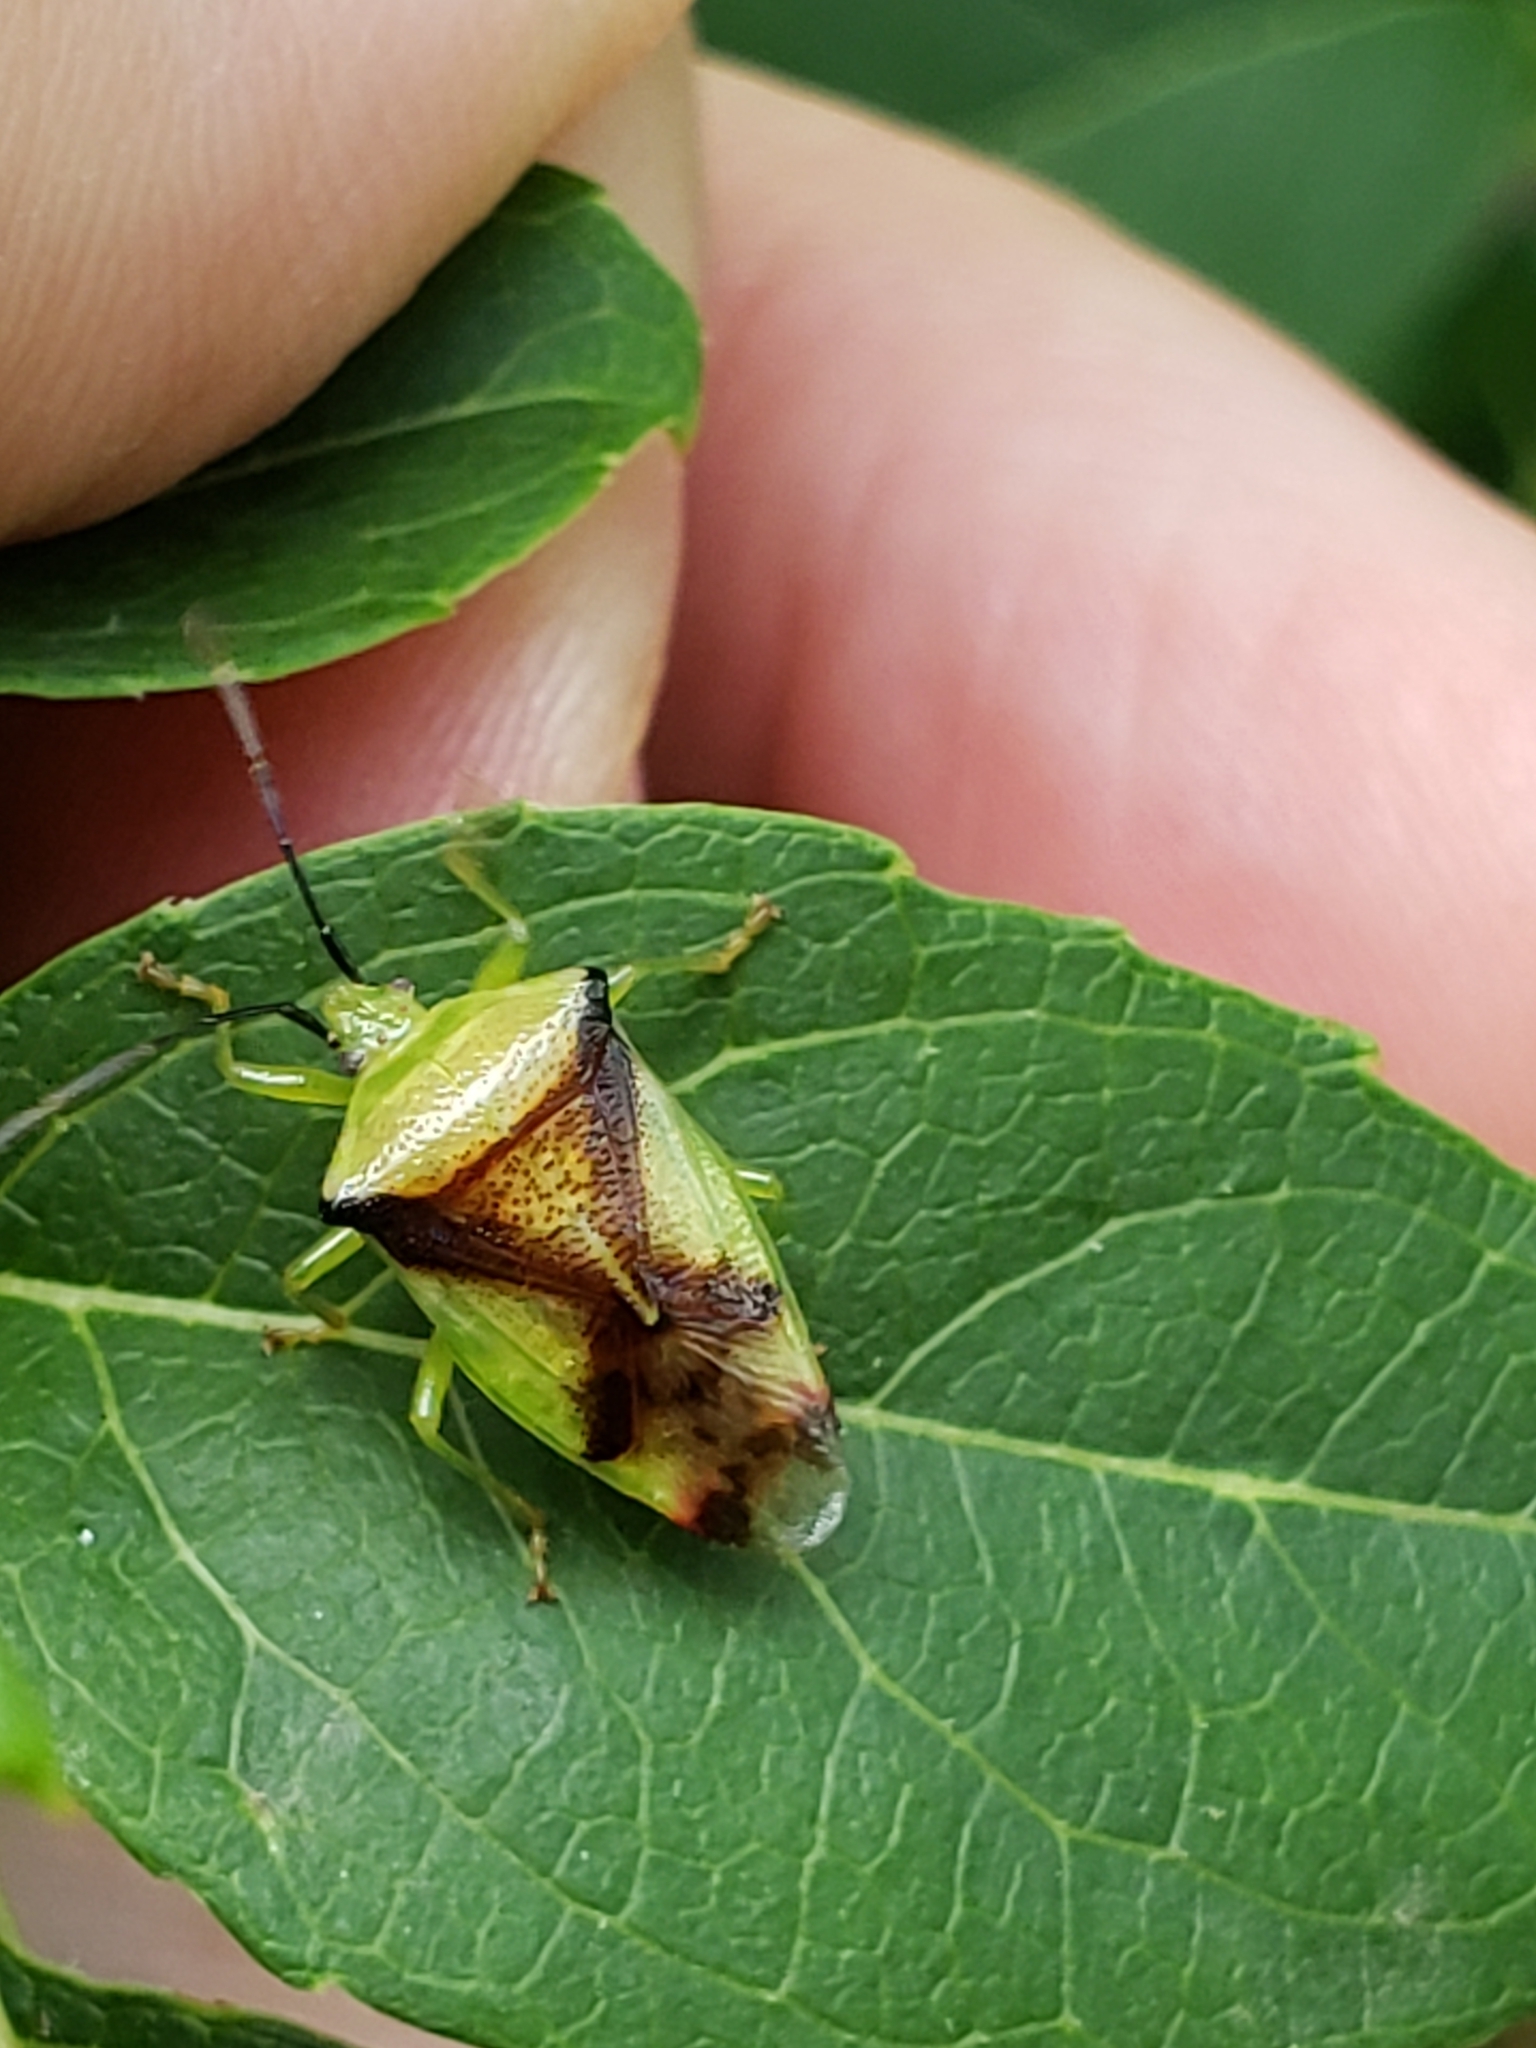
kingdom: Animalia
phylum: Arthropoda
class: Insecta
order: Hemiptera
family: Acanthosomatidae
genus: Elasmostethus
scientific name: Elasmostethus atricornis
